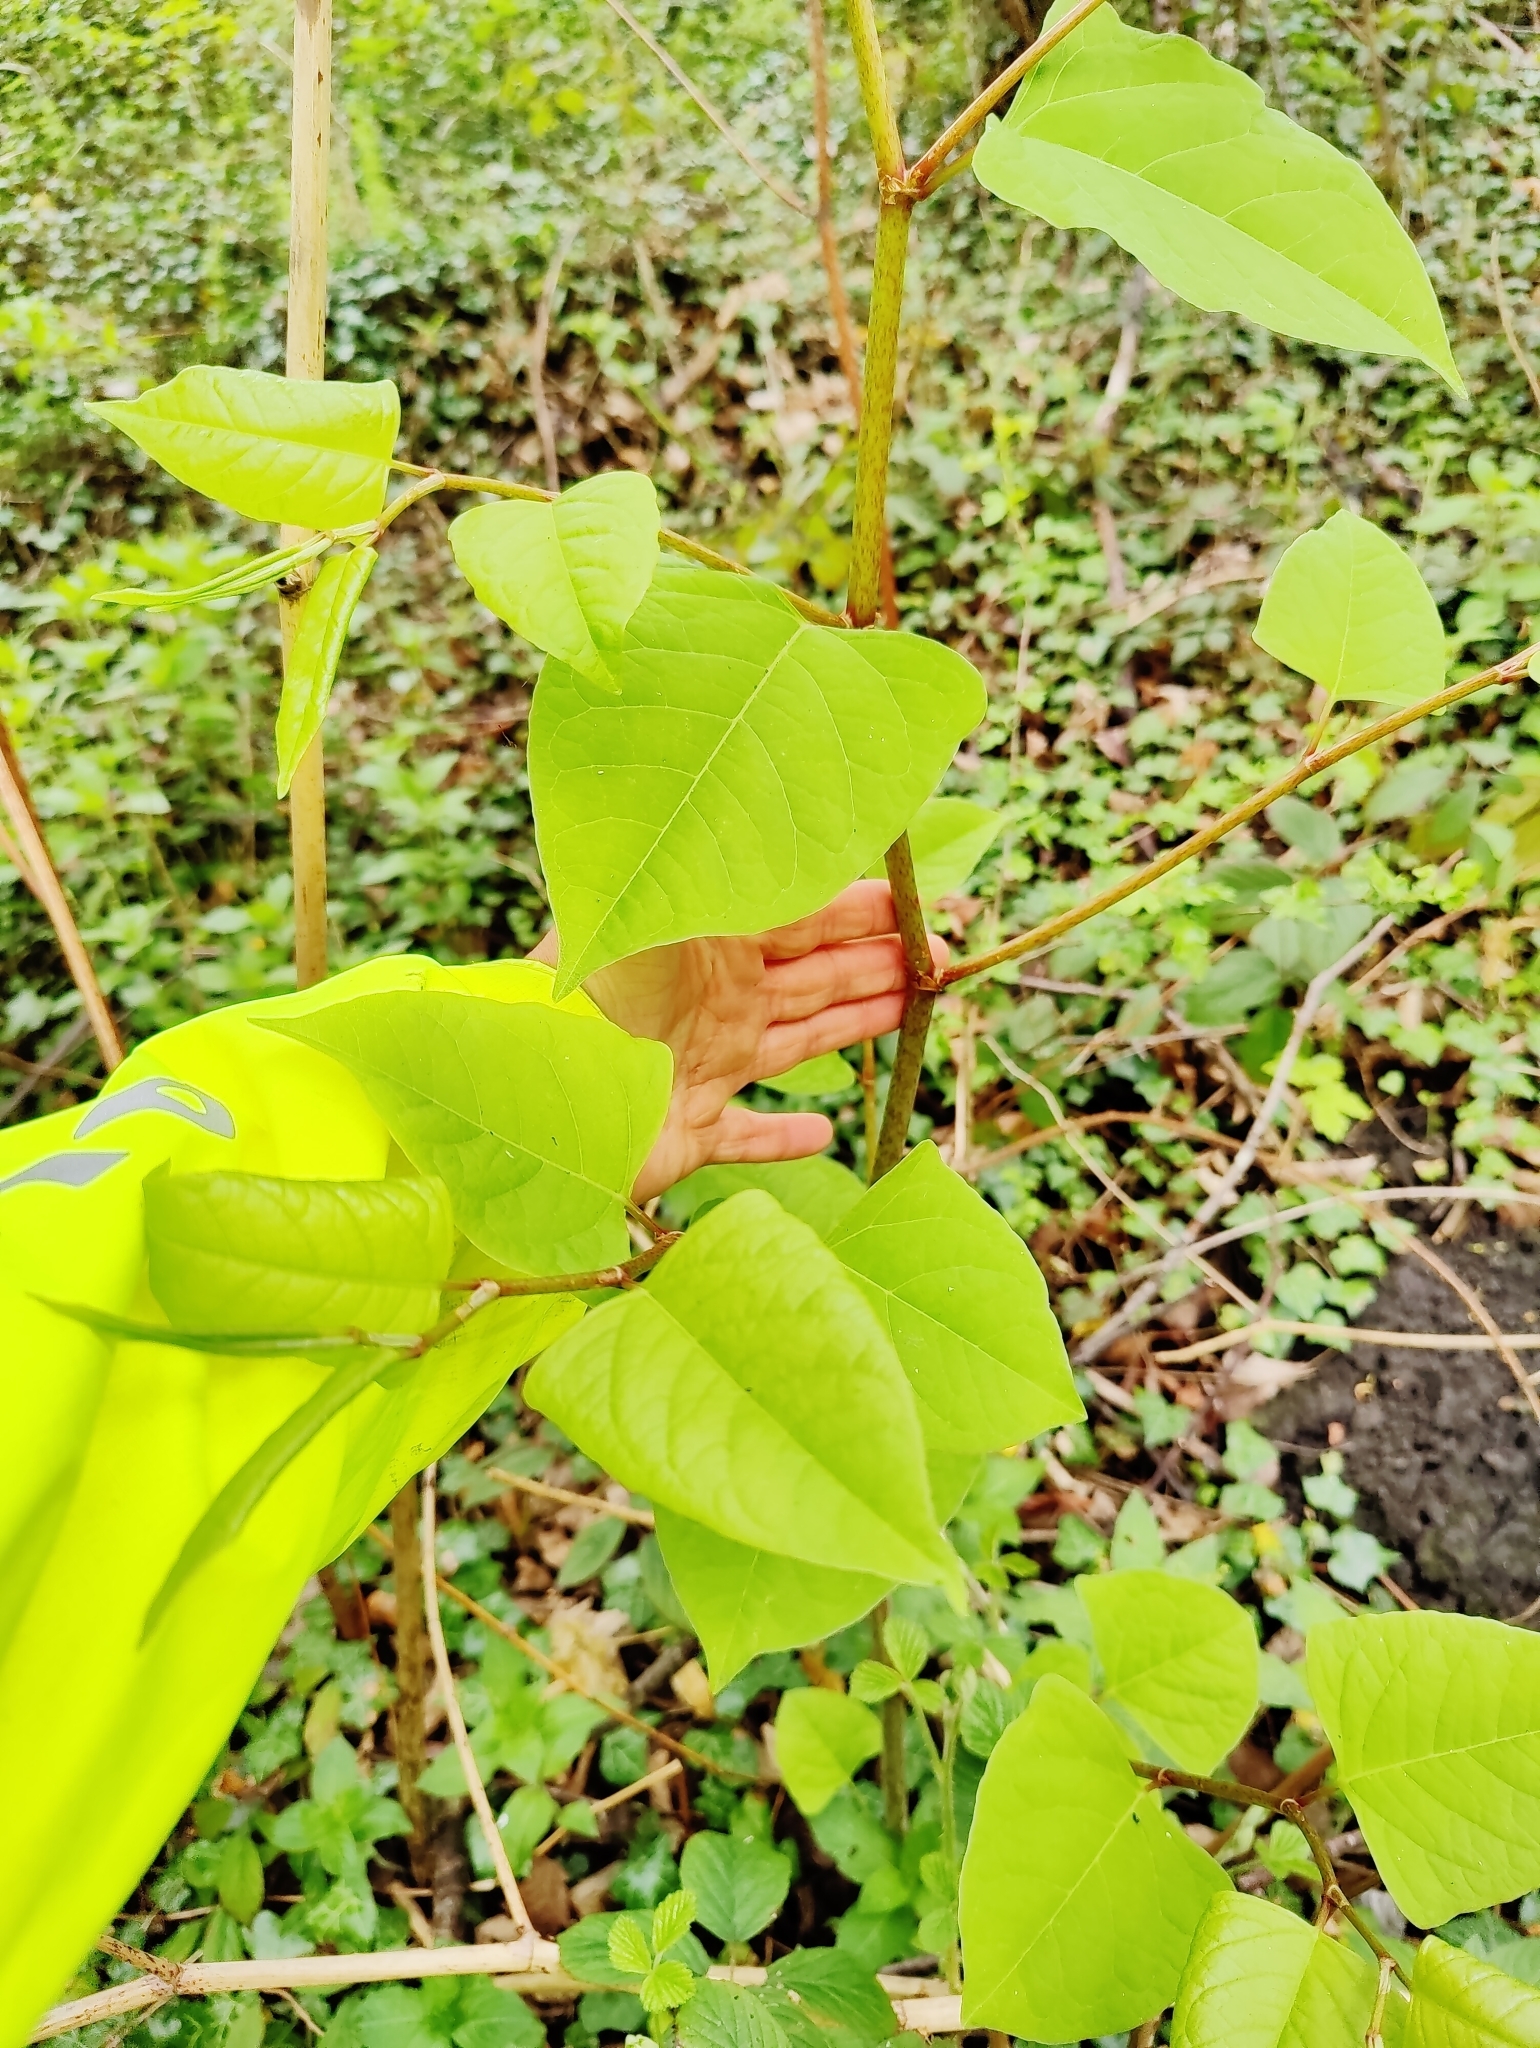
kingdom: Plantae
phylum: Tracheophyta
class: Magnoliopsida
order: Caryophyllales
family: Polygonaceae
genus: Reynoutria
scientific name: Reynoutria japonica
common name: Japanese knotweed
